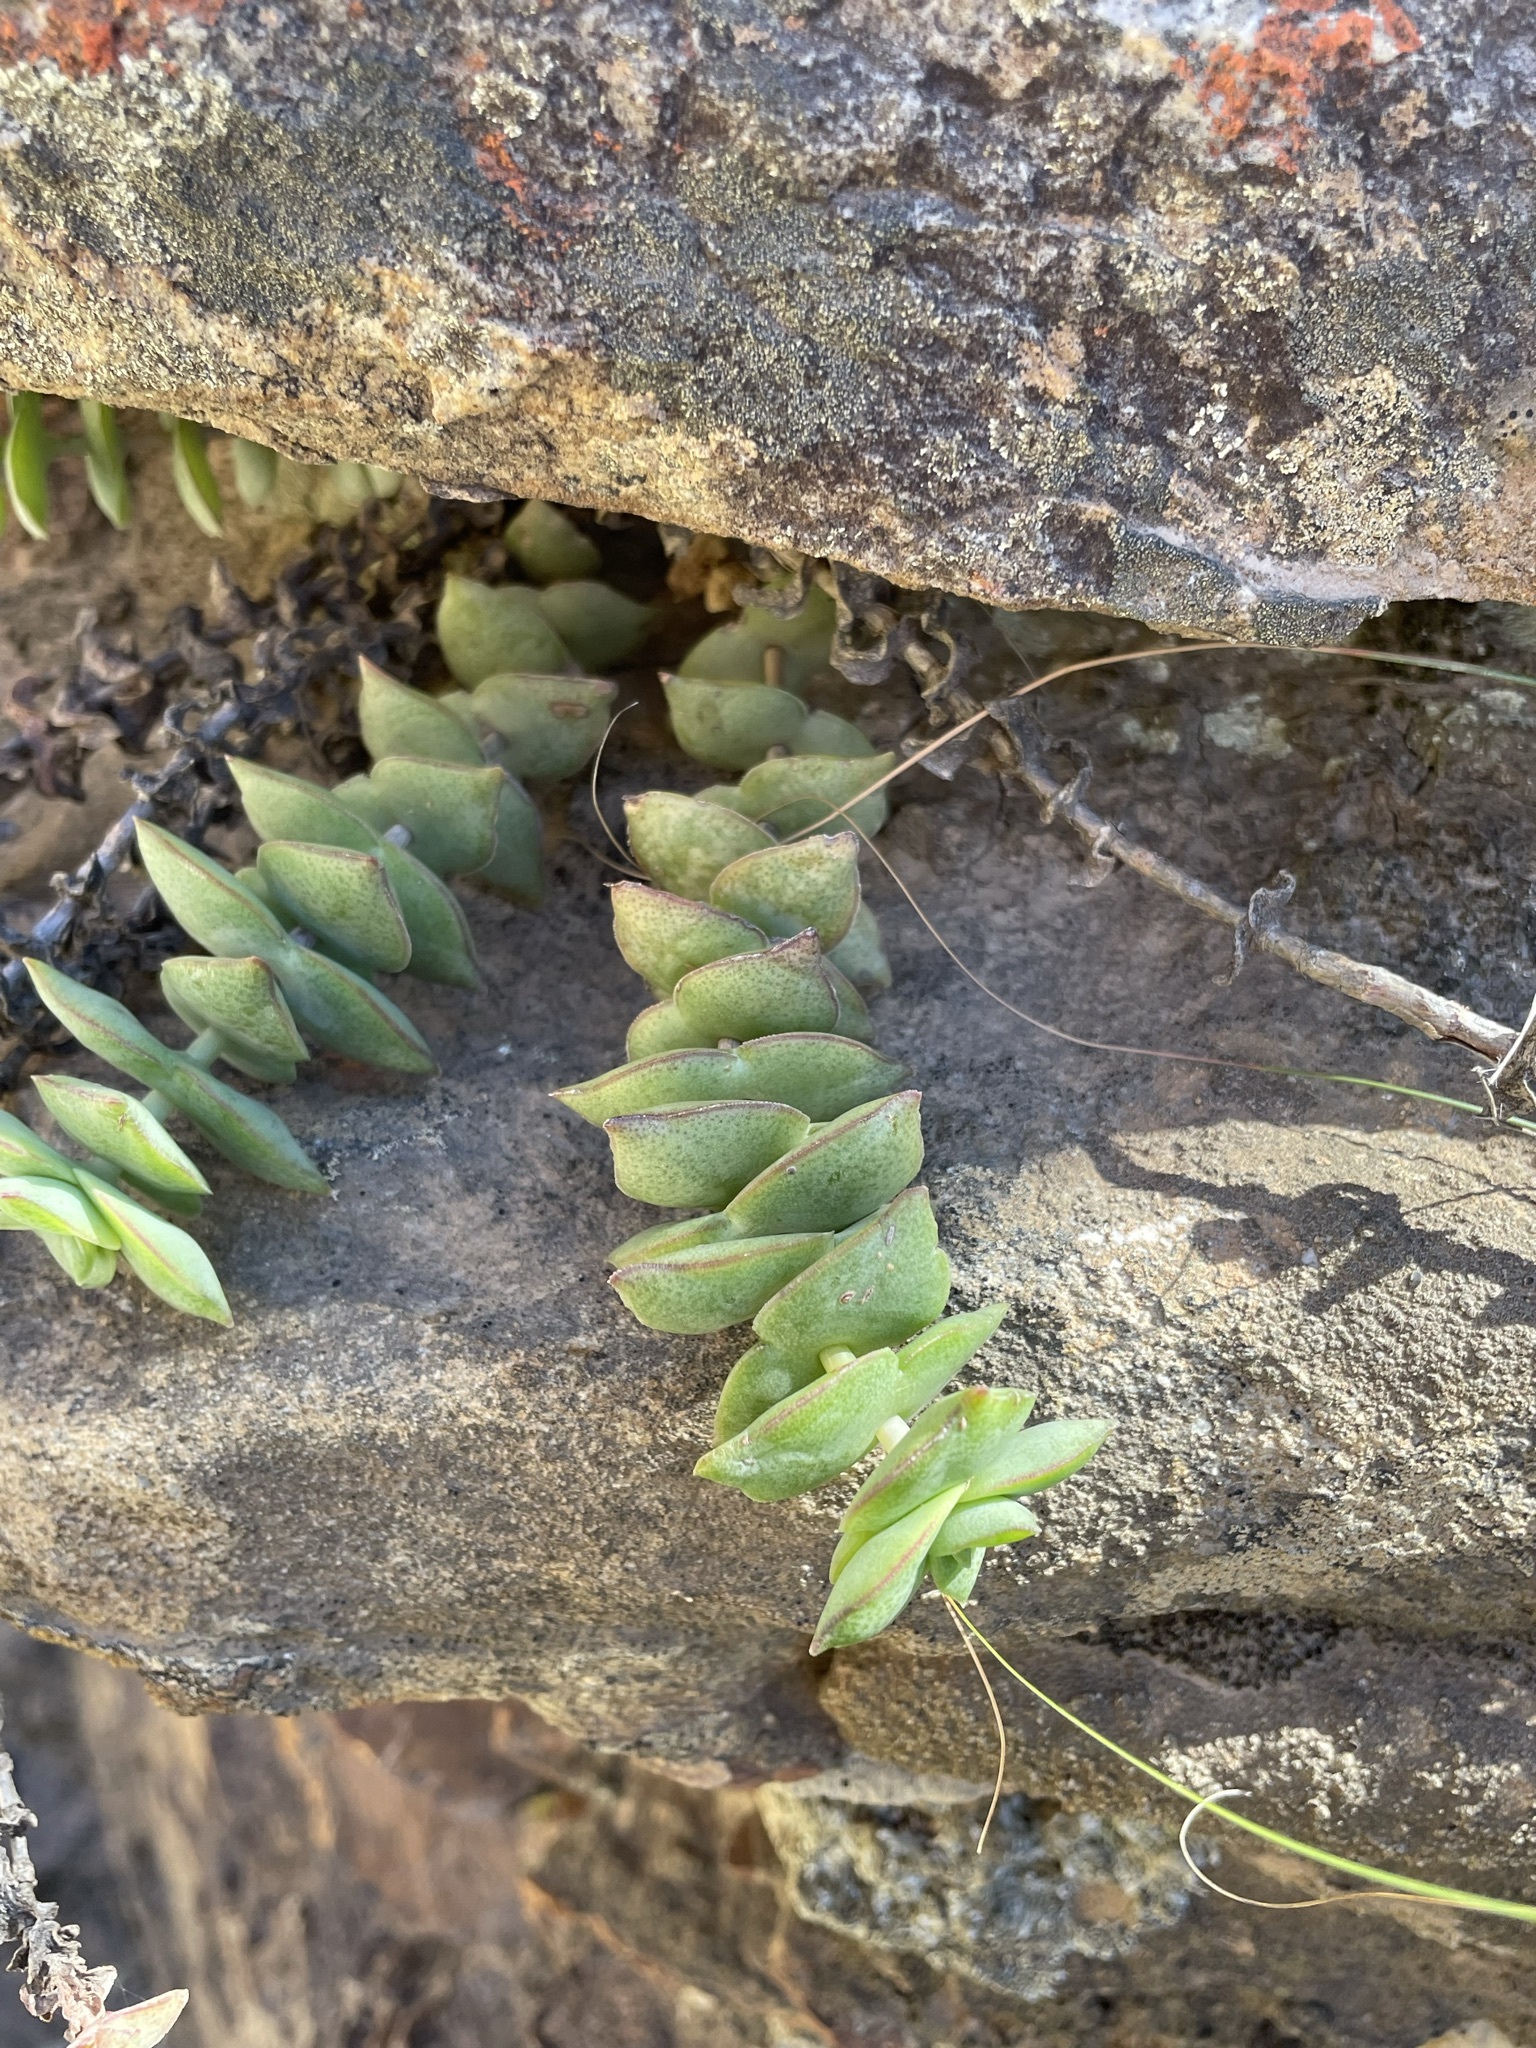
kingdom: Plantae
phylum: Tracheophyta
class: Magnoliopsida
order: Saxifragales
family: Crassulaceae
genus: Crassula
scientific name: Crassula perforata
